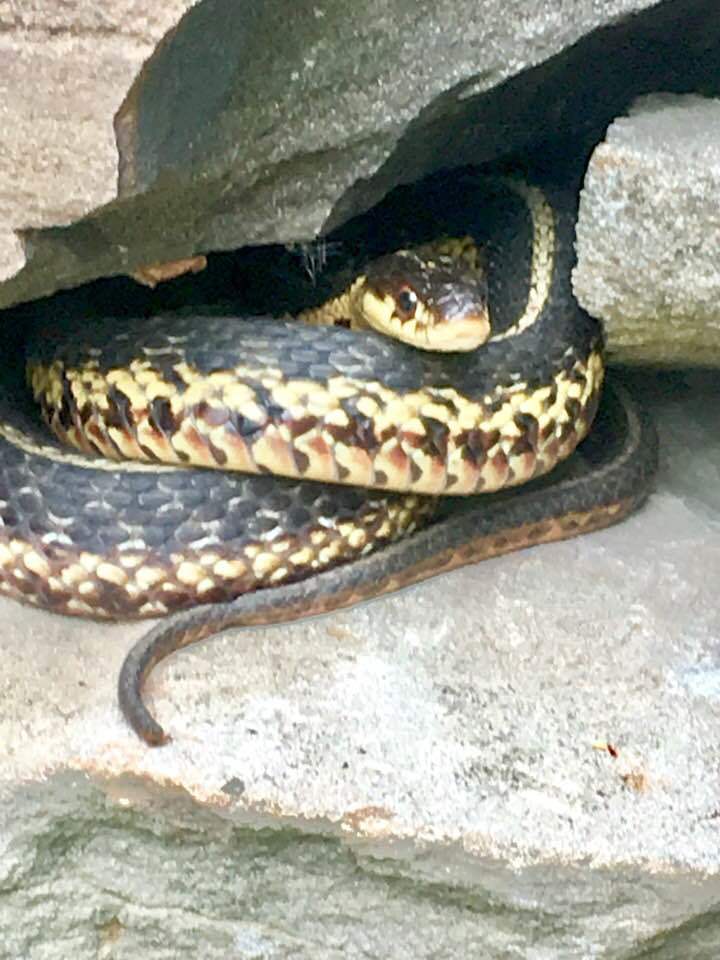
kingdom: Animalia
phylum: Chordata
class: Squamata
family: Colubridae
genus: Thamnophis
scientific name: Thamnophis sirtalis
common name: Common garter snake
